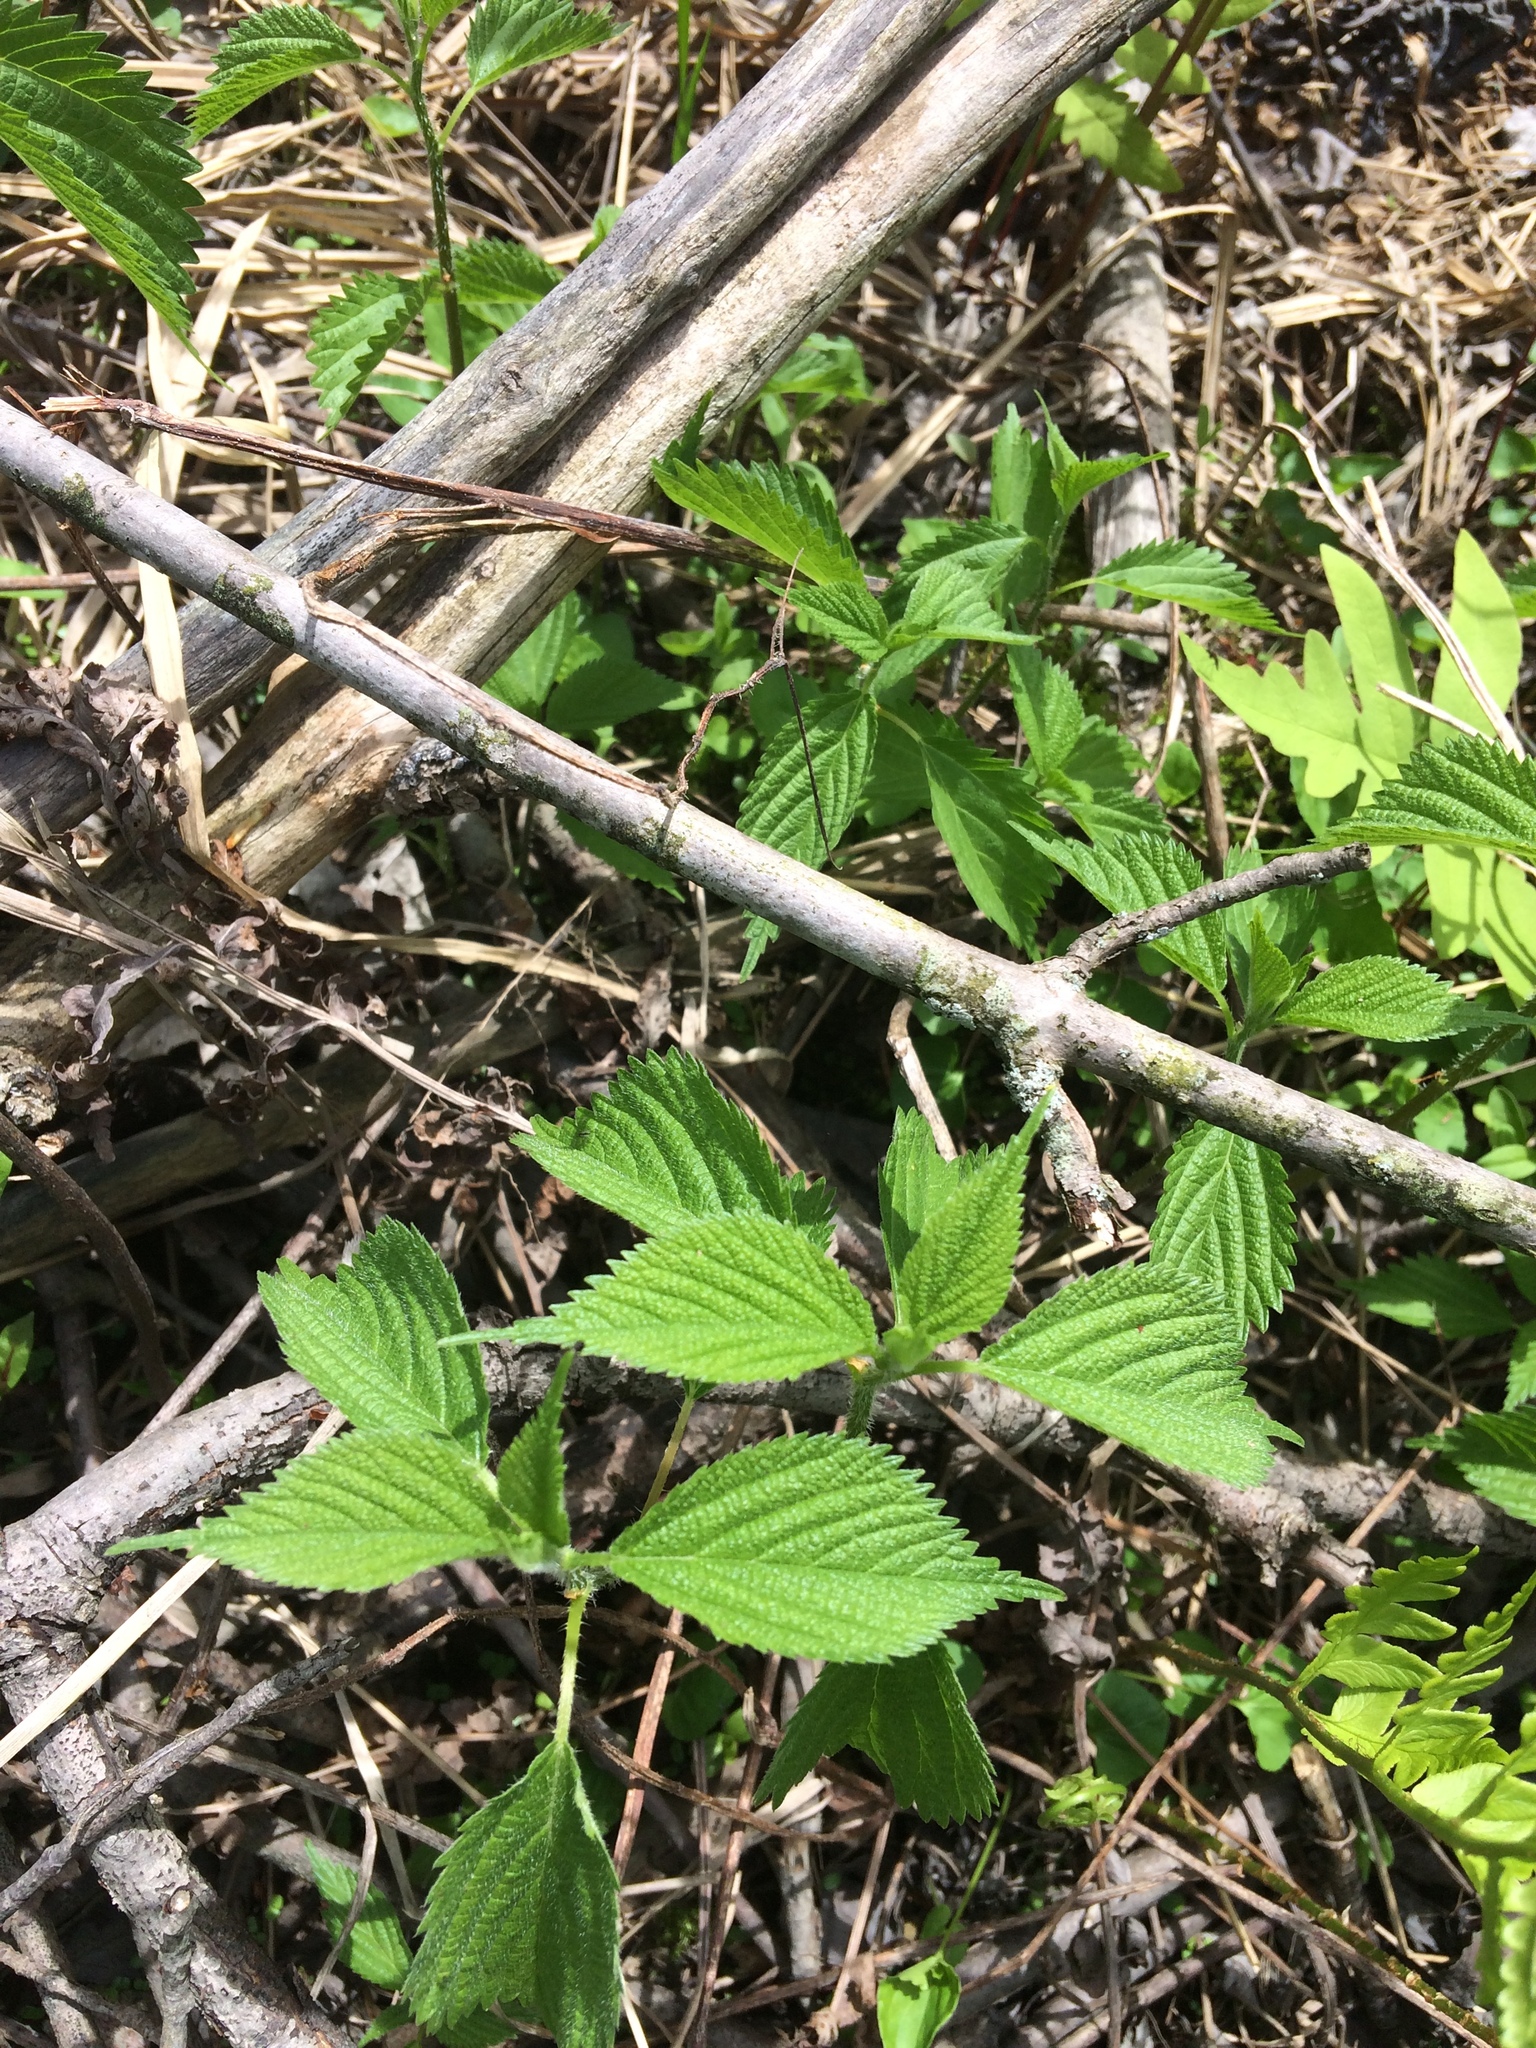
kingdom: Plantae
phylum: Tracheophyta
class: Magnoliopsida
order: Rosales
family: Urticaceae
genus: Urtica
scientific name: Urtica dioica
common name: Common nettle
